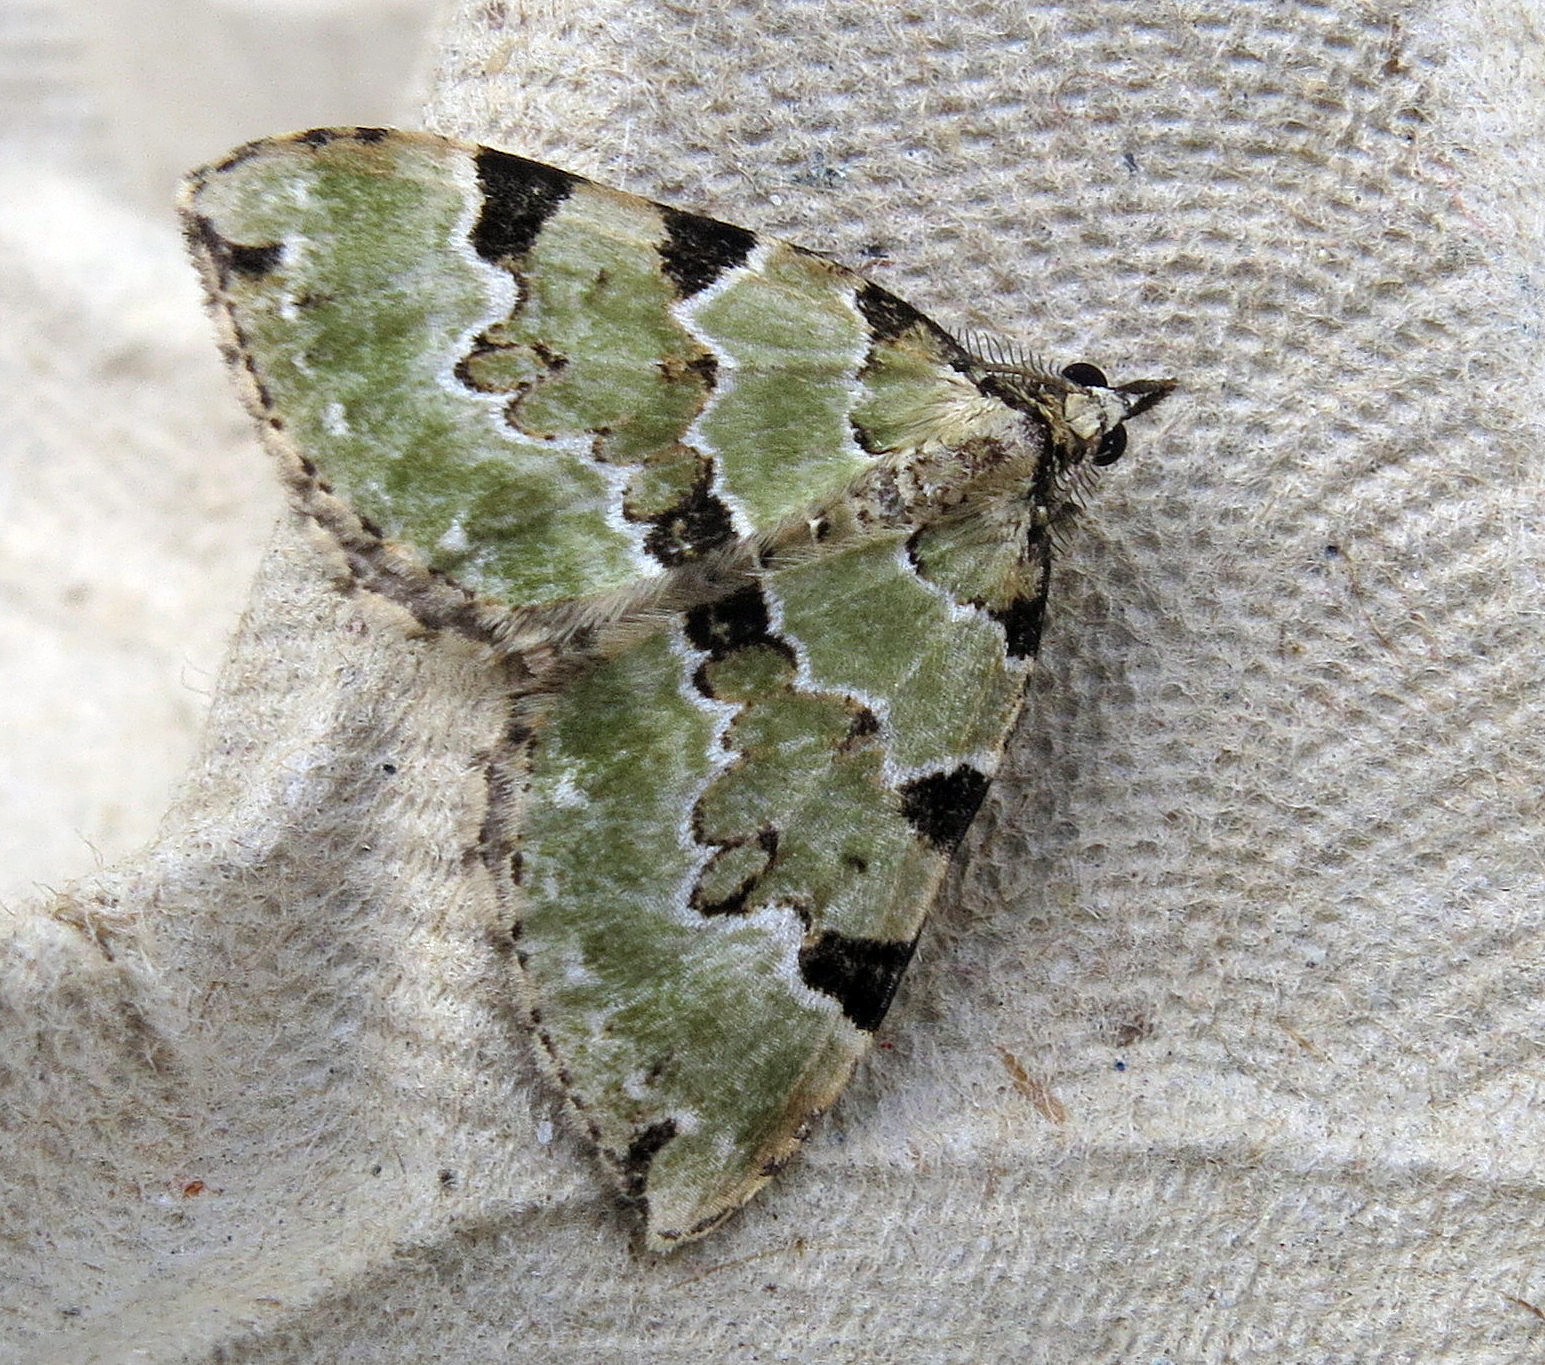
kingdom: Animalia
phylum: Arthropoda
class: Insecta
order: Lepidoptera
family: Geometridae
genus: Colostygia
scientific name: Colostygia pectinataria
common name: Green carpet
